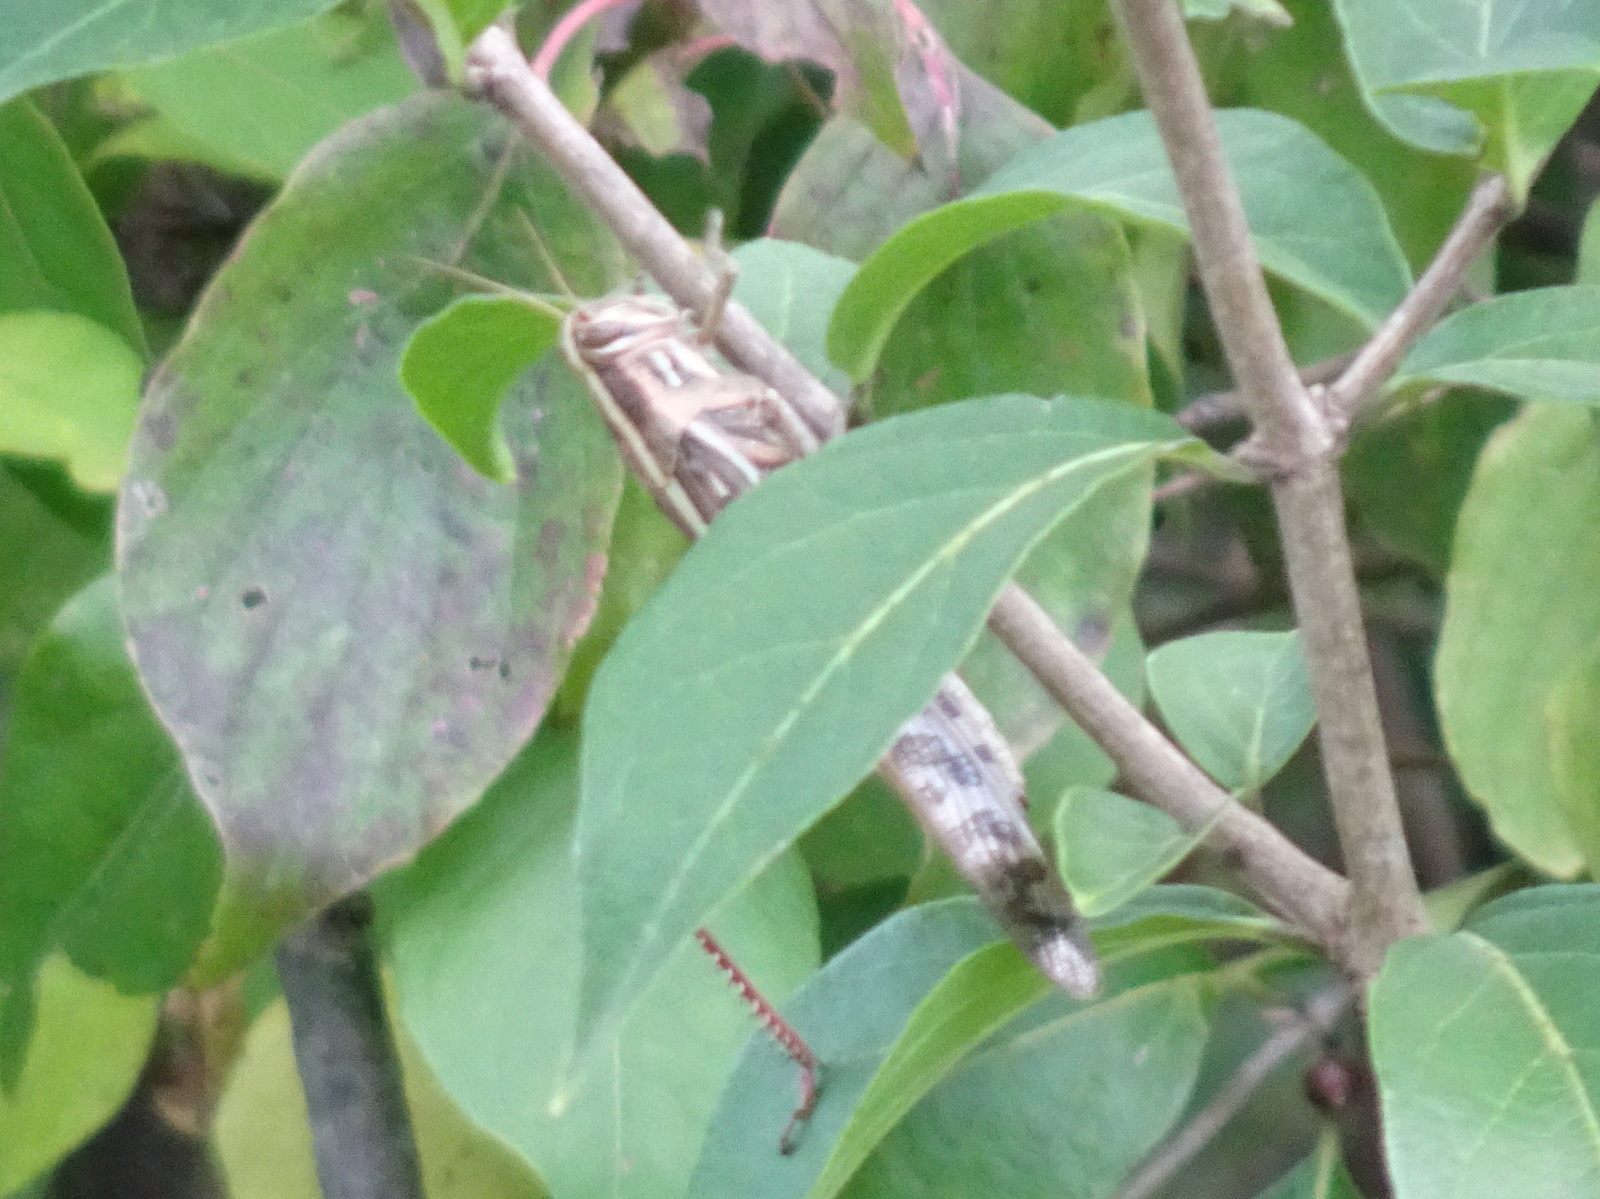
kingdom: Animalia
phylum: Arthropoda
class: Insecta
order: Orthoptera
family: Acrididae
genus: Schistocerca
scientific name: Schistocerca americana
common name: American bird locust
